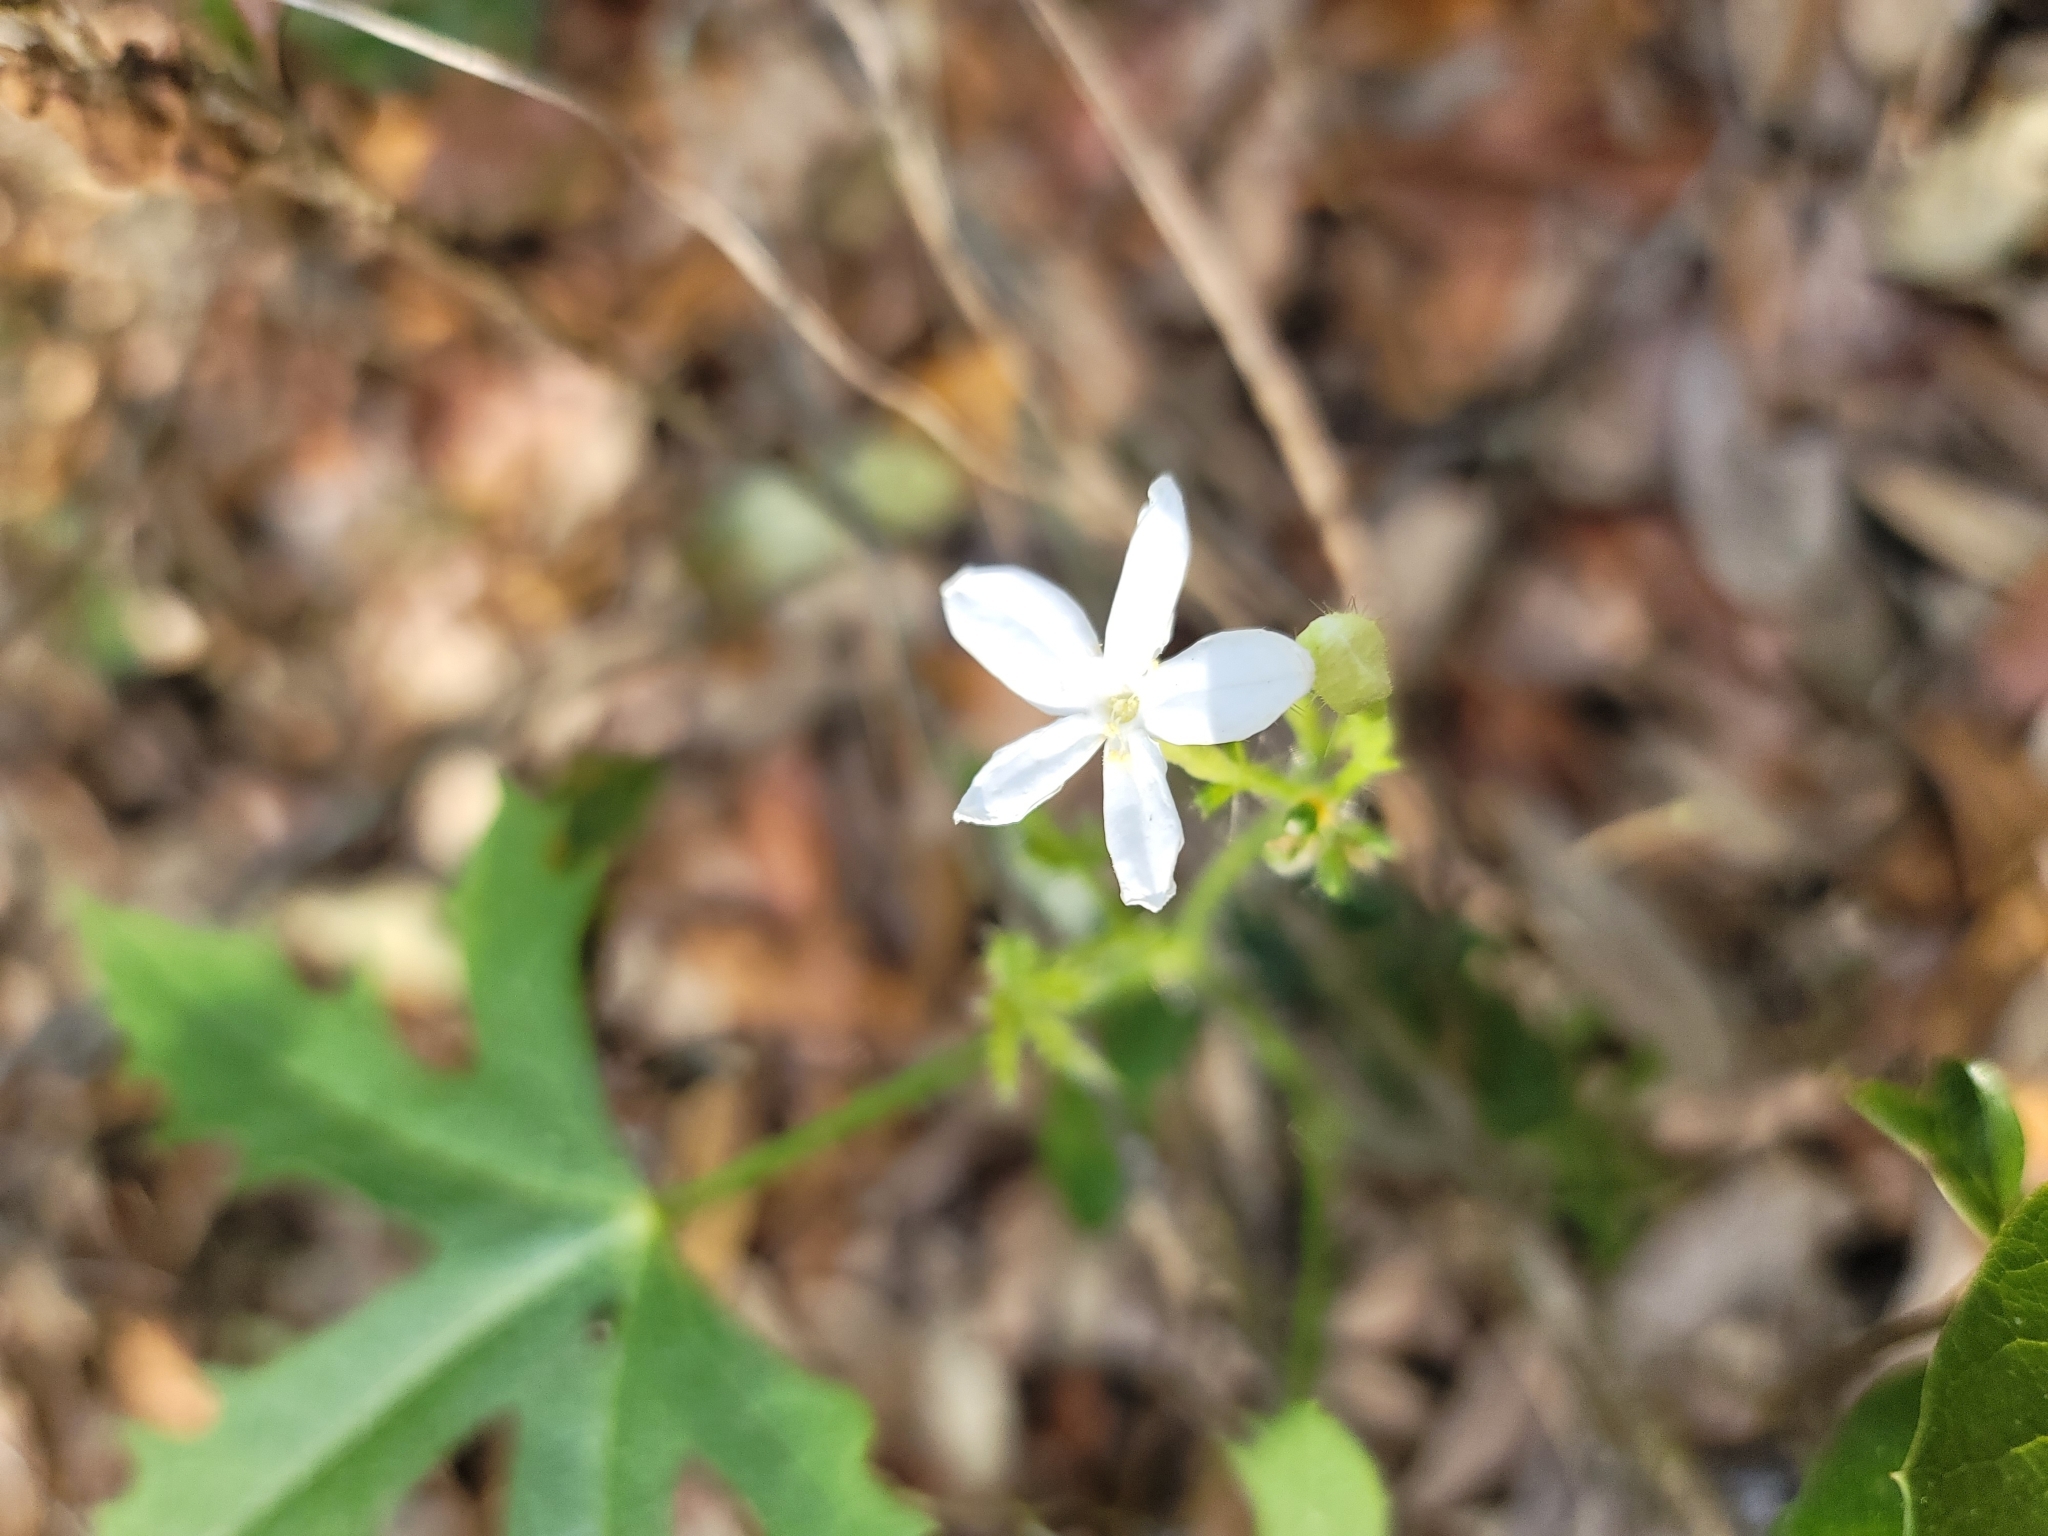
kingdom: Plantae
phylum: Tracheophyta
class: Magnoliopsida
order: Malpighiales
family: Euphorbiaceae
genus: Cnidoscolus
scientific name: Cnidoscolus stimulosus
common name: Bull-nettle
